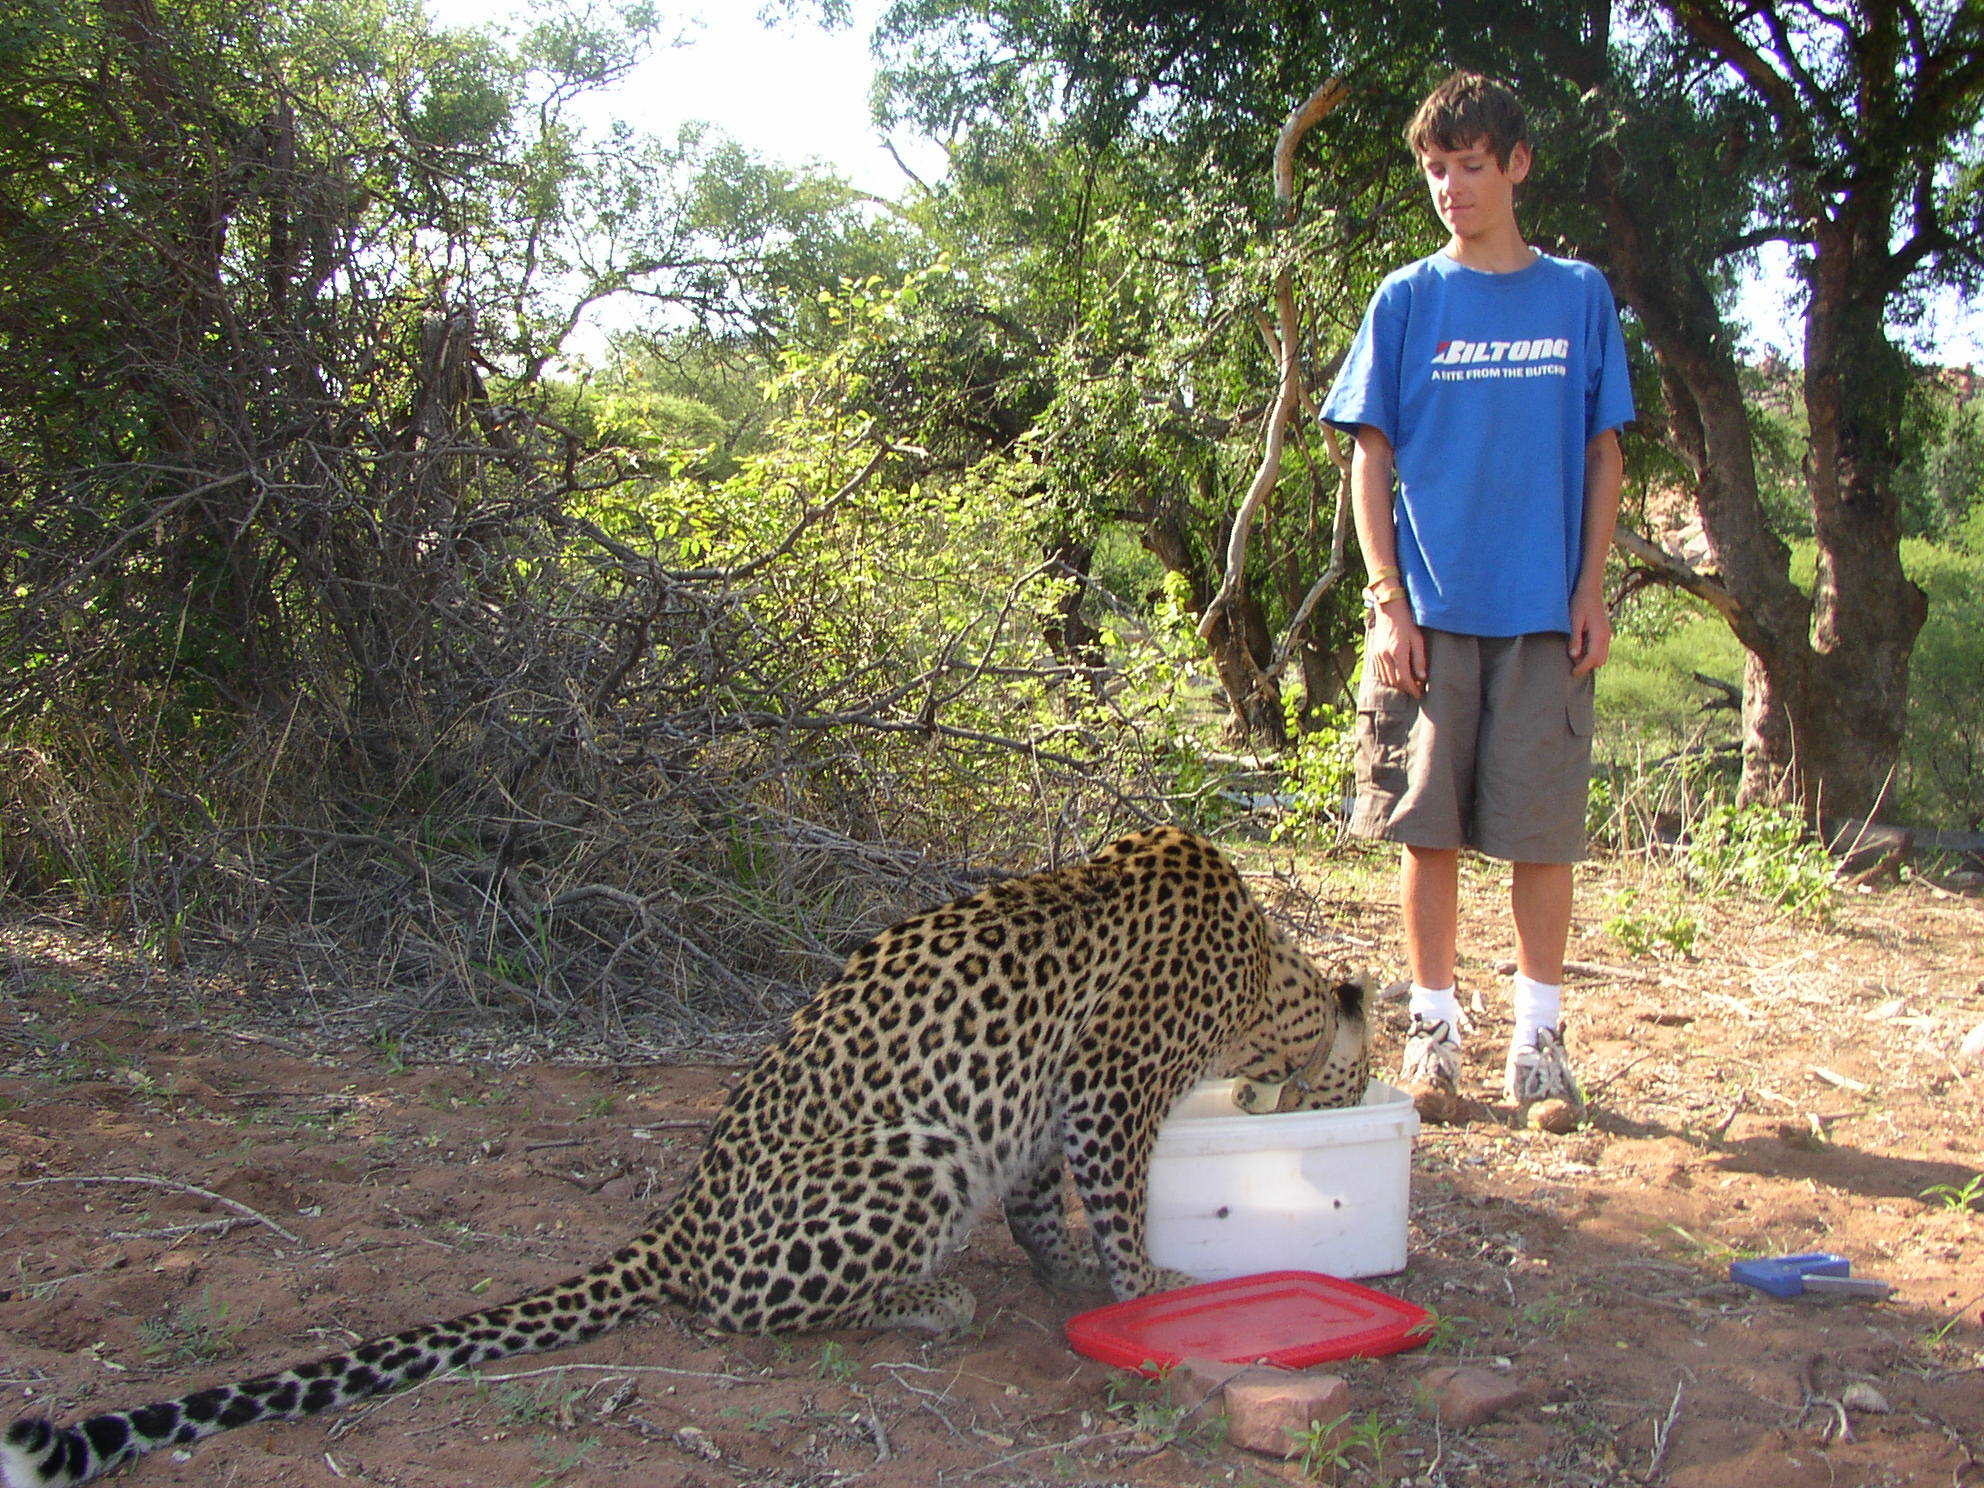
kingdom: Animalia
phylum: Chordata
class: Mammalia
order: Carnivora
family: Felidae
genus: Panthera
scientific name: Panthera pardus
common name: Leopard
